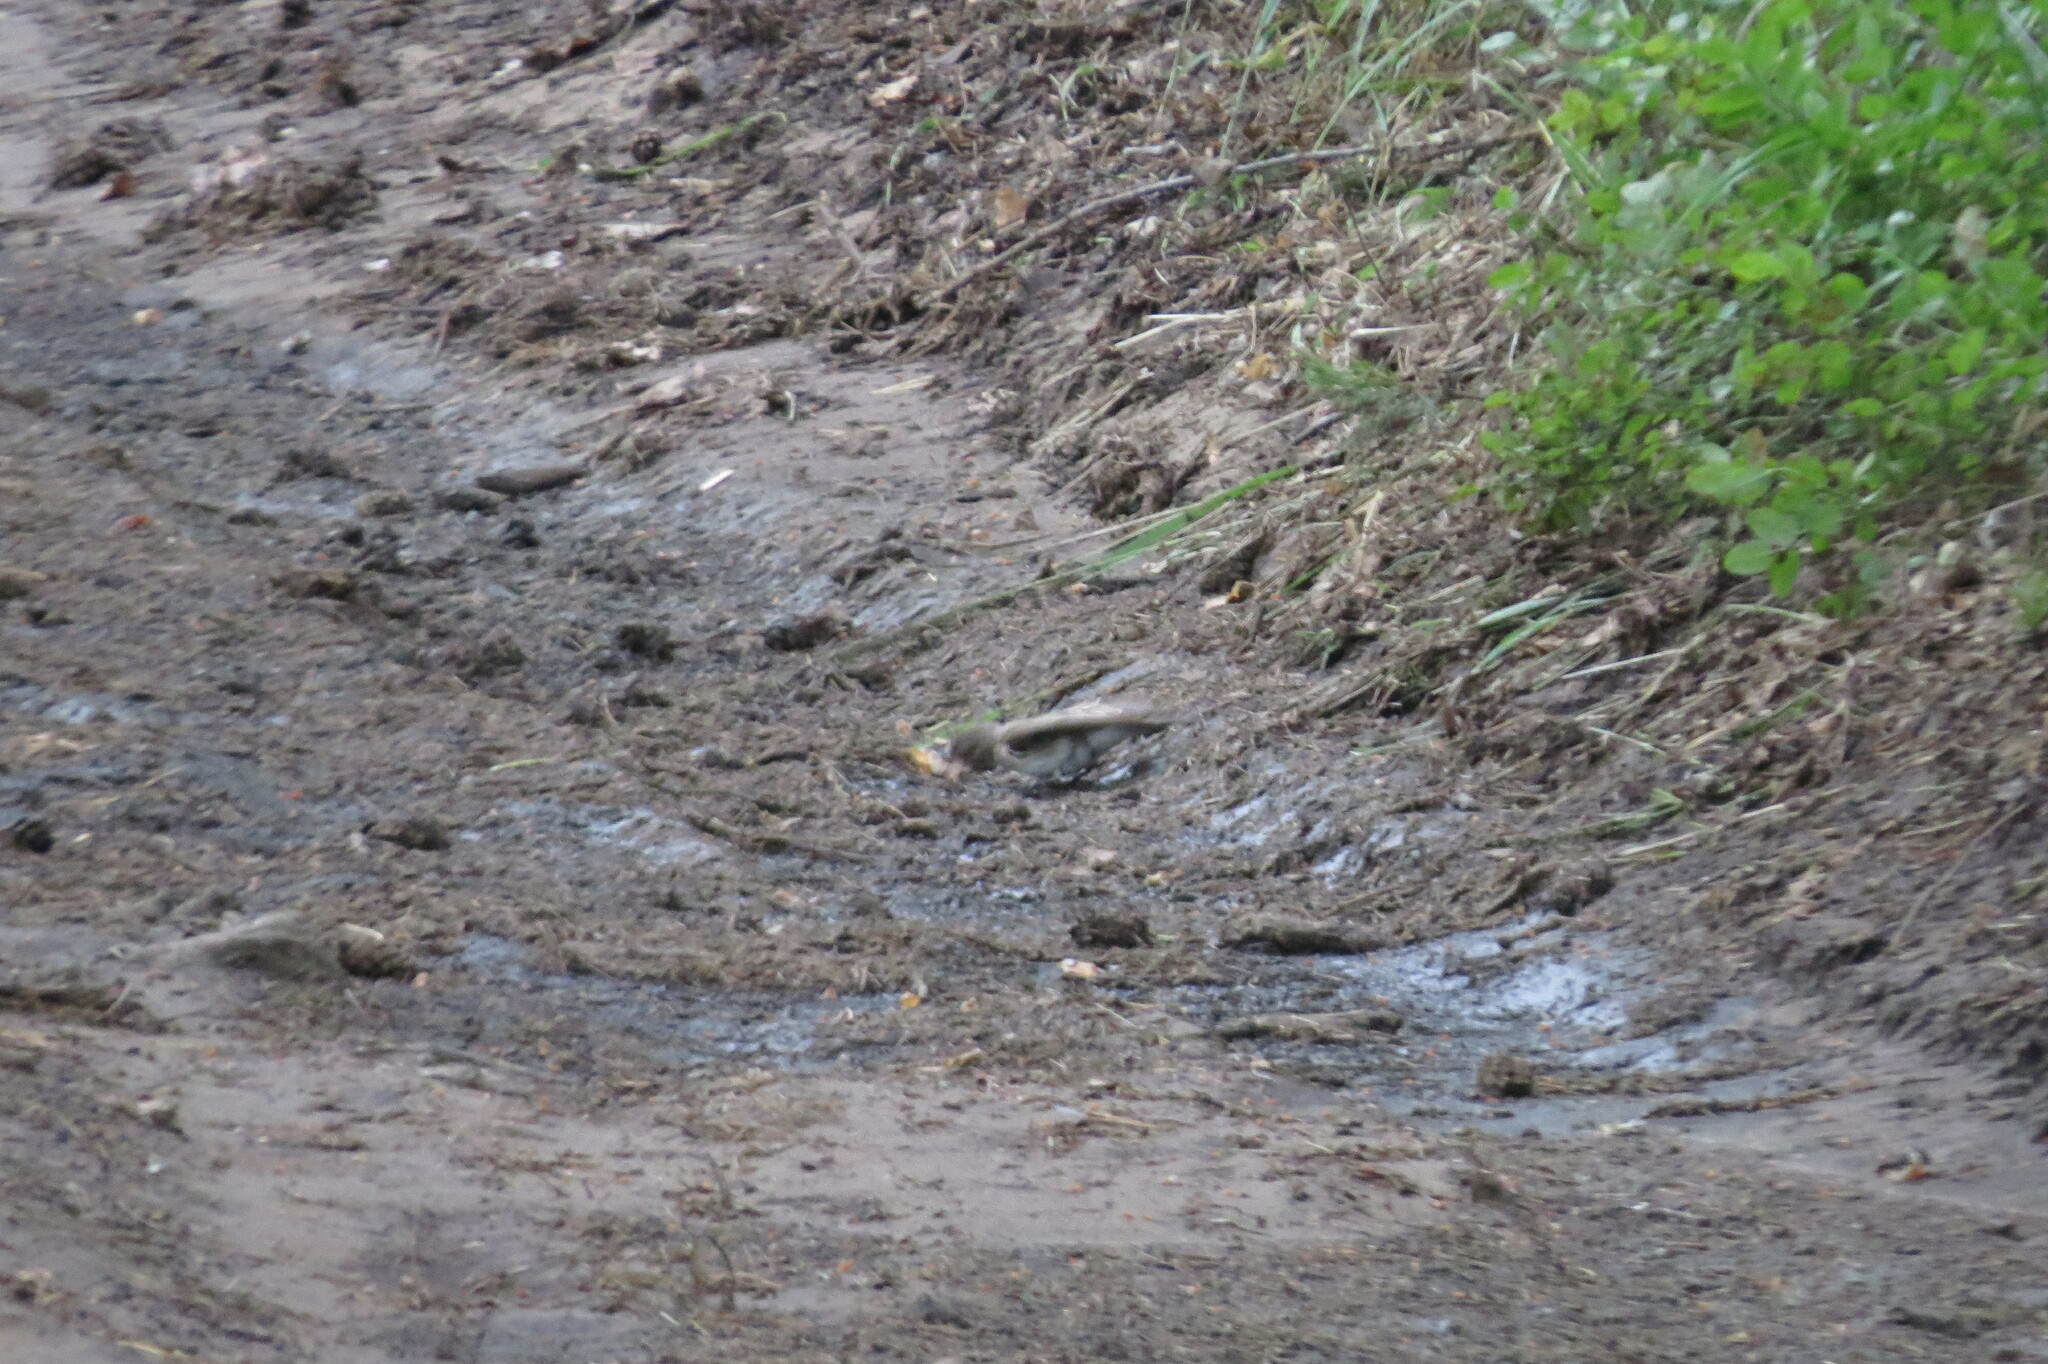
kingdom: Animalia
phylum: Chordata
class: Aves
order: Passeriformes
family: Muscicapidae
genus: Muscicapa
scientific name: Muscicapa striata
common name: Spotted flycatcher
